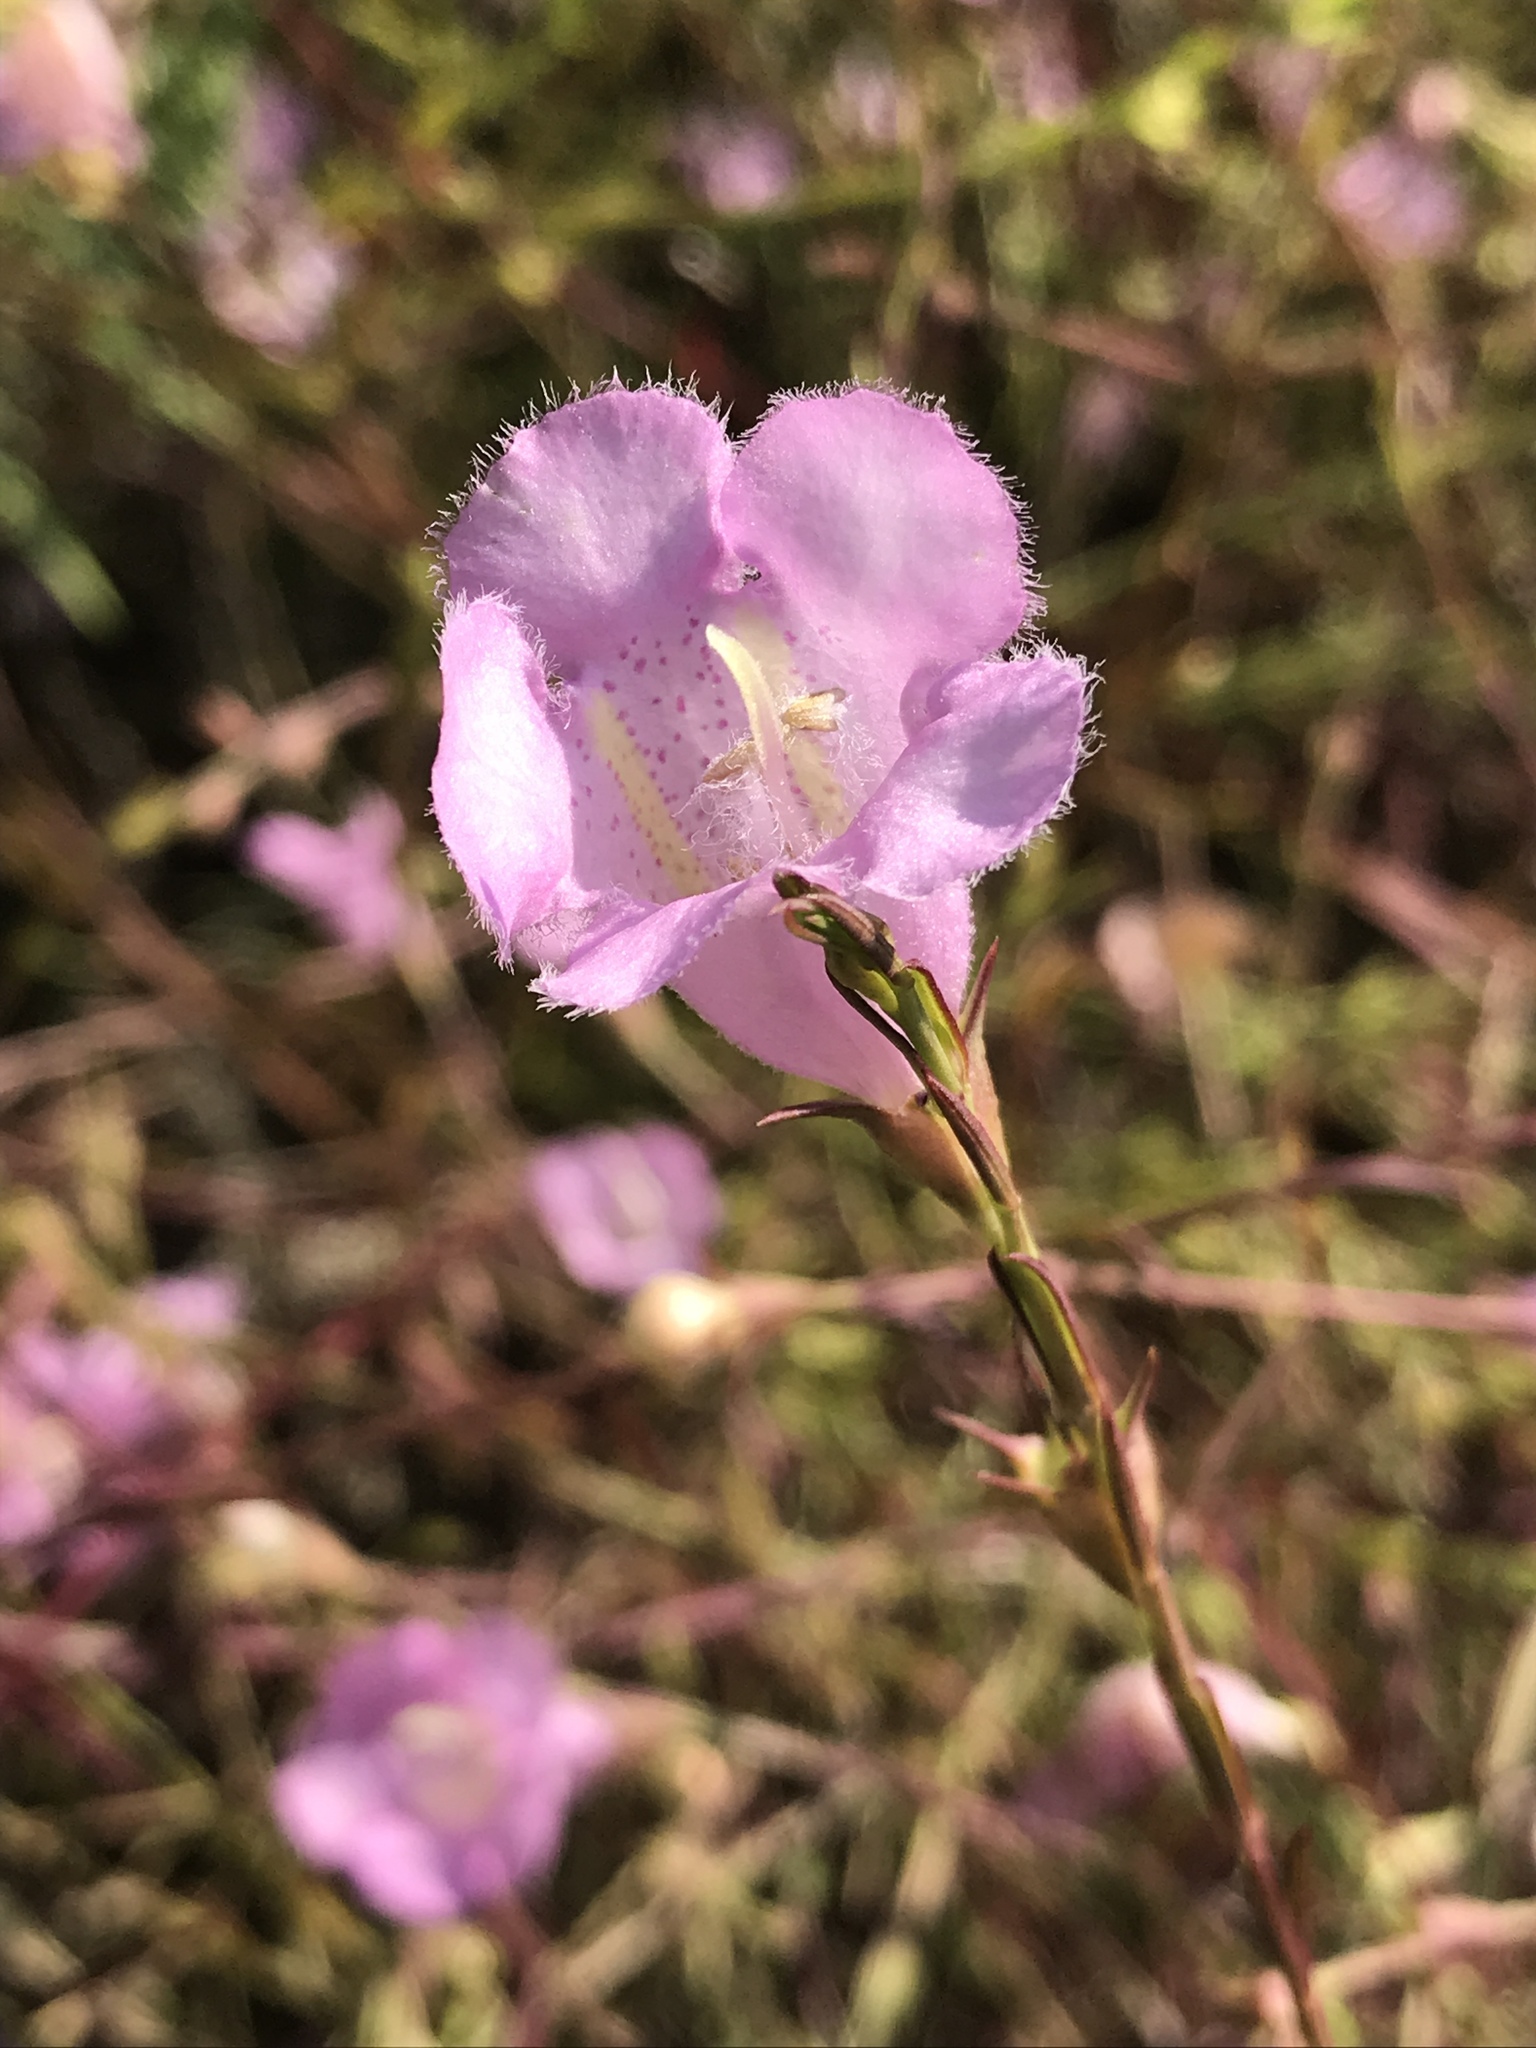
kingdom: Plantae
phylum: Tracheophyta
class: Magnoliopsida
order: Lamiales
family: Orobanchaceae
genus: Agalinis
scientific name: Agalinis heterophylla
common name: Prairie agalinis
